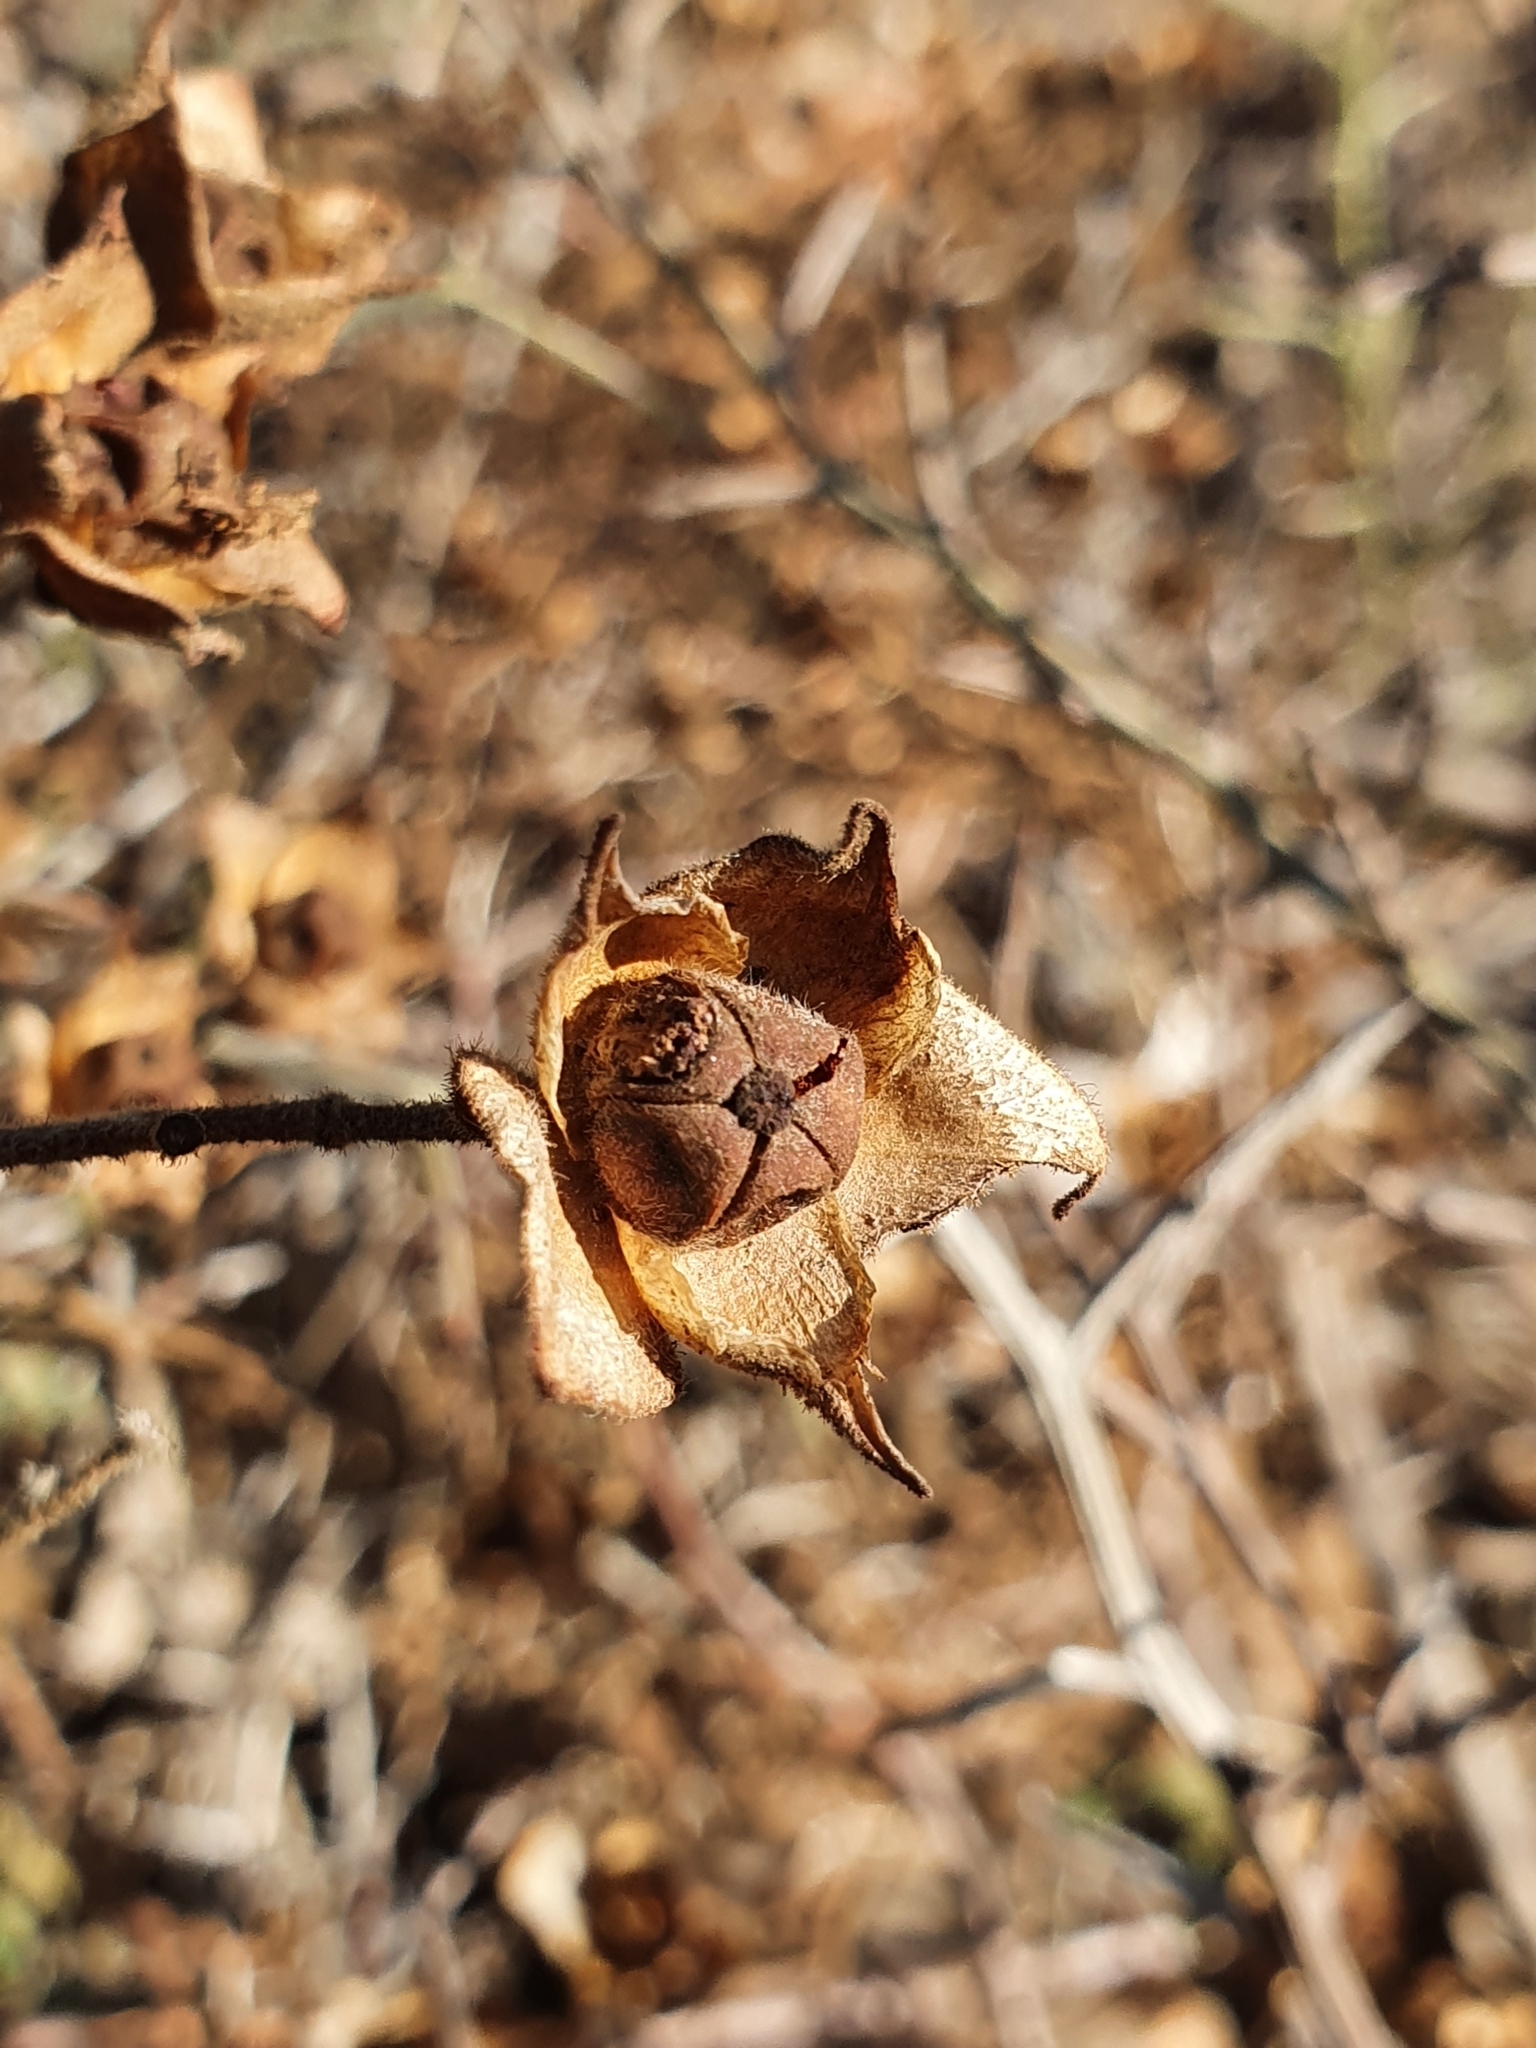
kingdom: Plantae
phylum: Tracheophyta
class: Magnoliopsida
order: Malvales
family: Cistaceae
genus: Cistus
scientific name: Cistus salviifolius
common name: Salvia cistus
